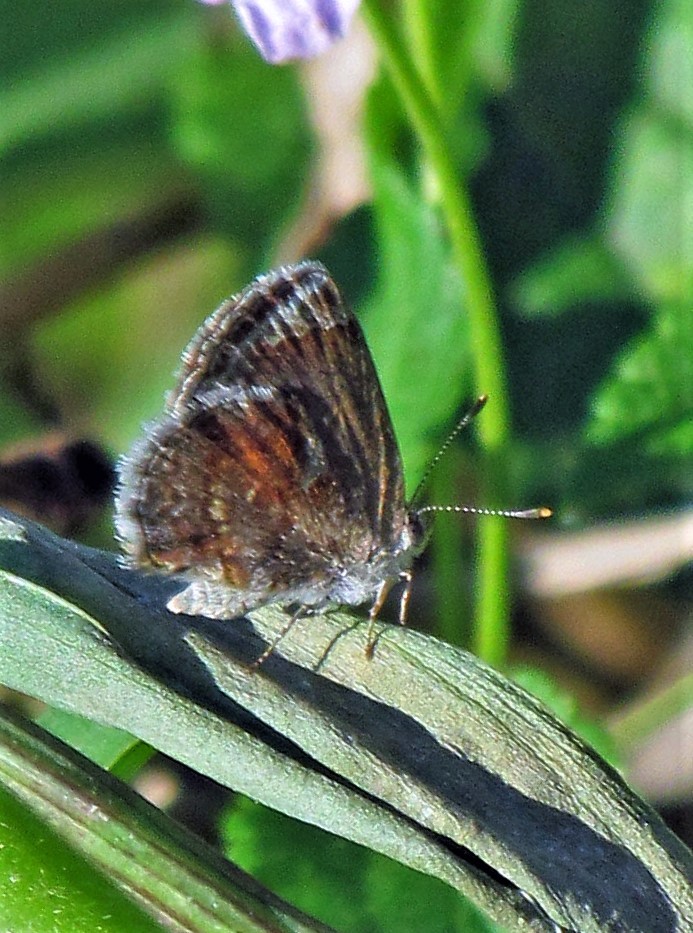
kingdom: Animalia
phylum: Arthropoda
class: Insecta
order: Lepidoptera
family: Lycaenidae
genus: Strymon
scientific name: Strymon bazochii
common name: Lantana scrub-hairstreak
